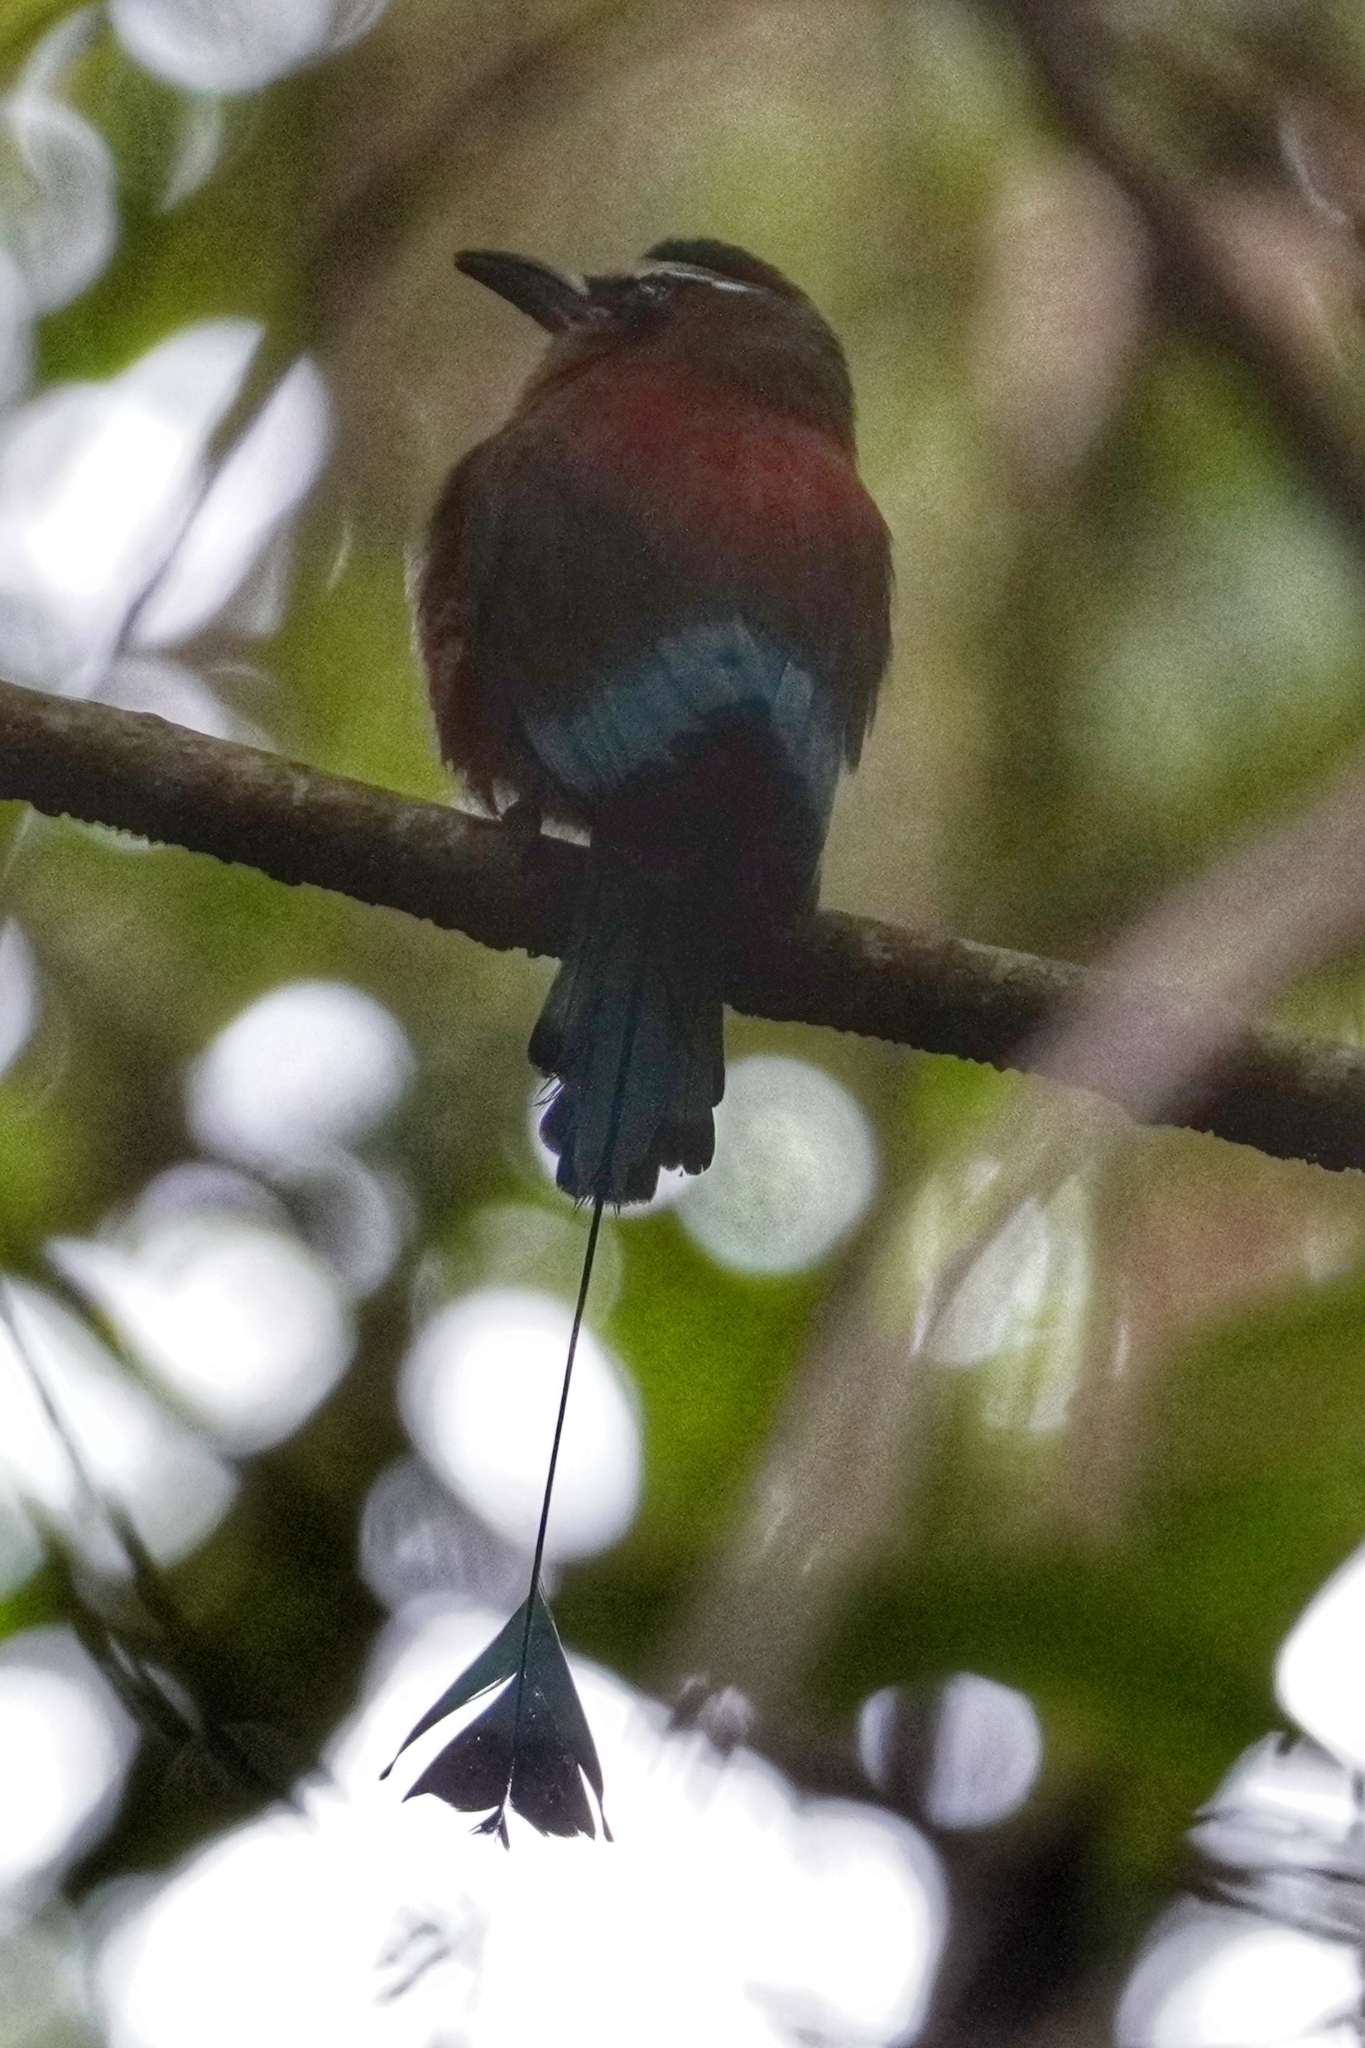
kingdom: Animalia
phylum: Chordata
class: Aves
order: Coraciiformes
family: Momotidae
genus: Eumomota
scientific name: Eumomota superciliosa
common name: Turquoise-browed motmot
